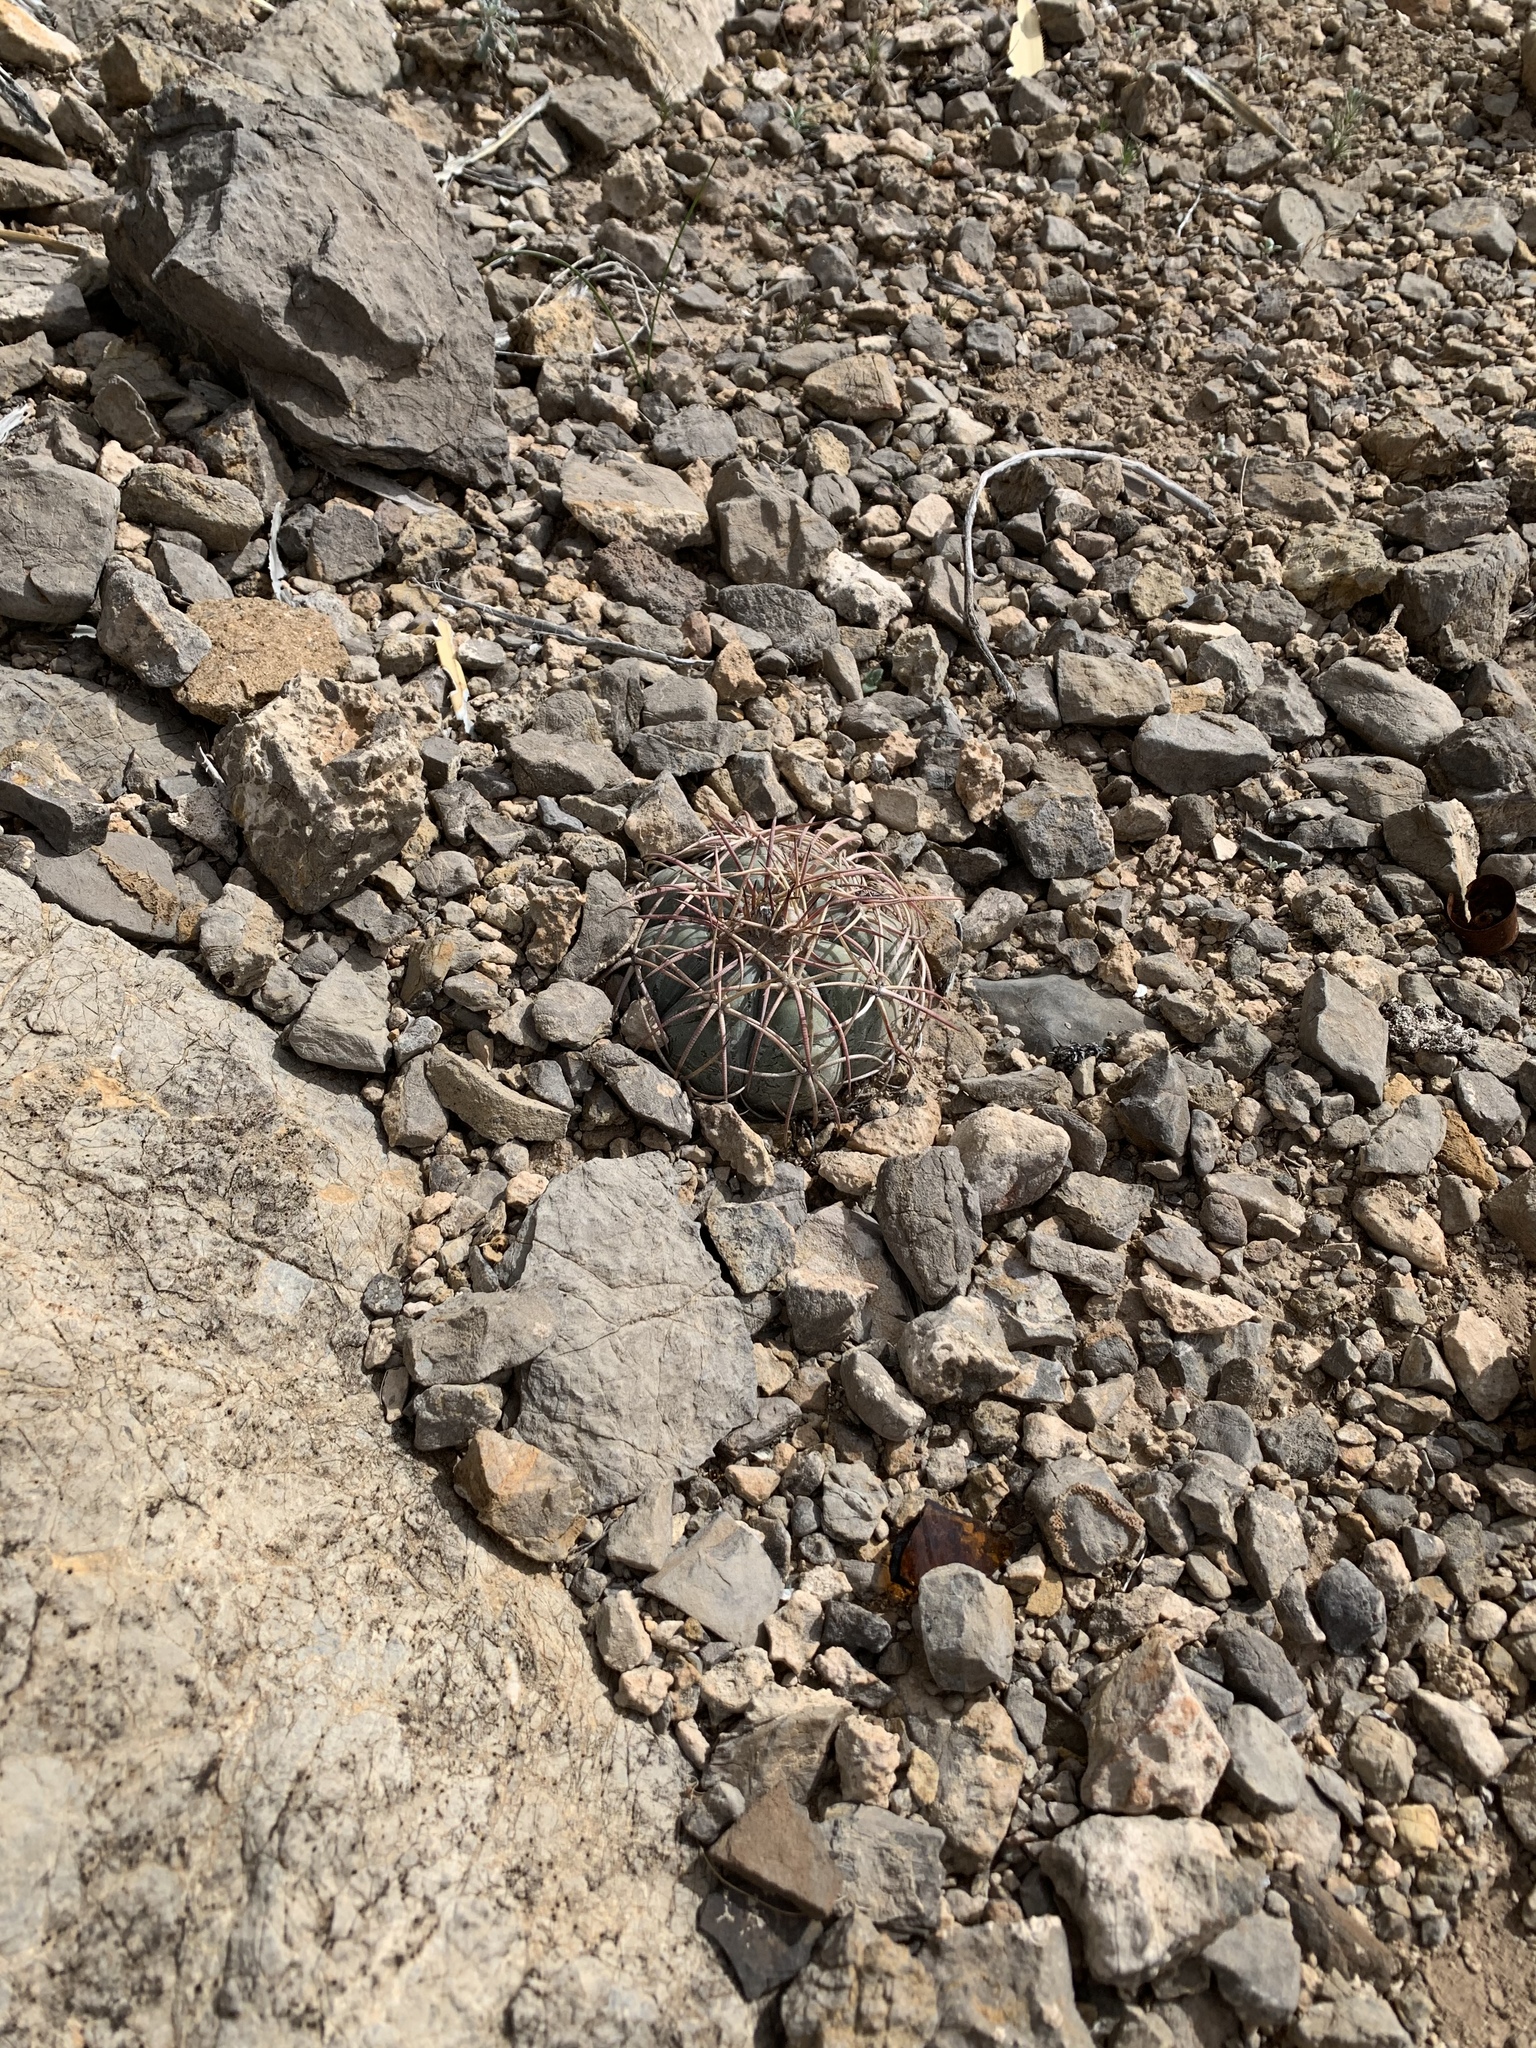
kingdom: Plantae
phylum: Tracheophyta
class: Magnoliopsida
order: Caryophyllales
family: Cactaceae
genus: Echinocactus
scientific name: Echinocactus horizonthalonius
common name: Devilshead
